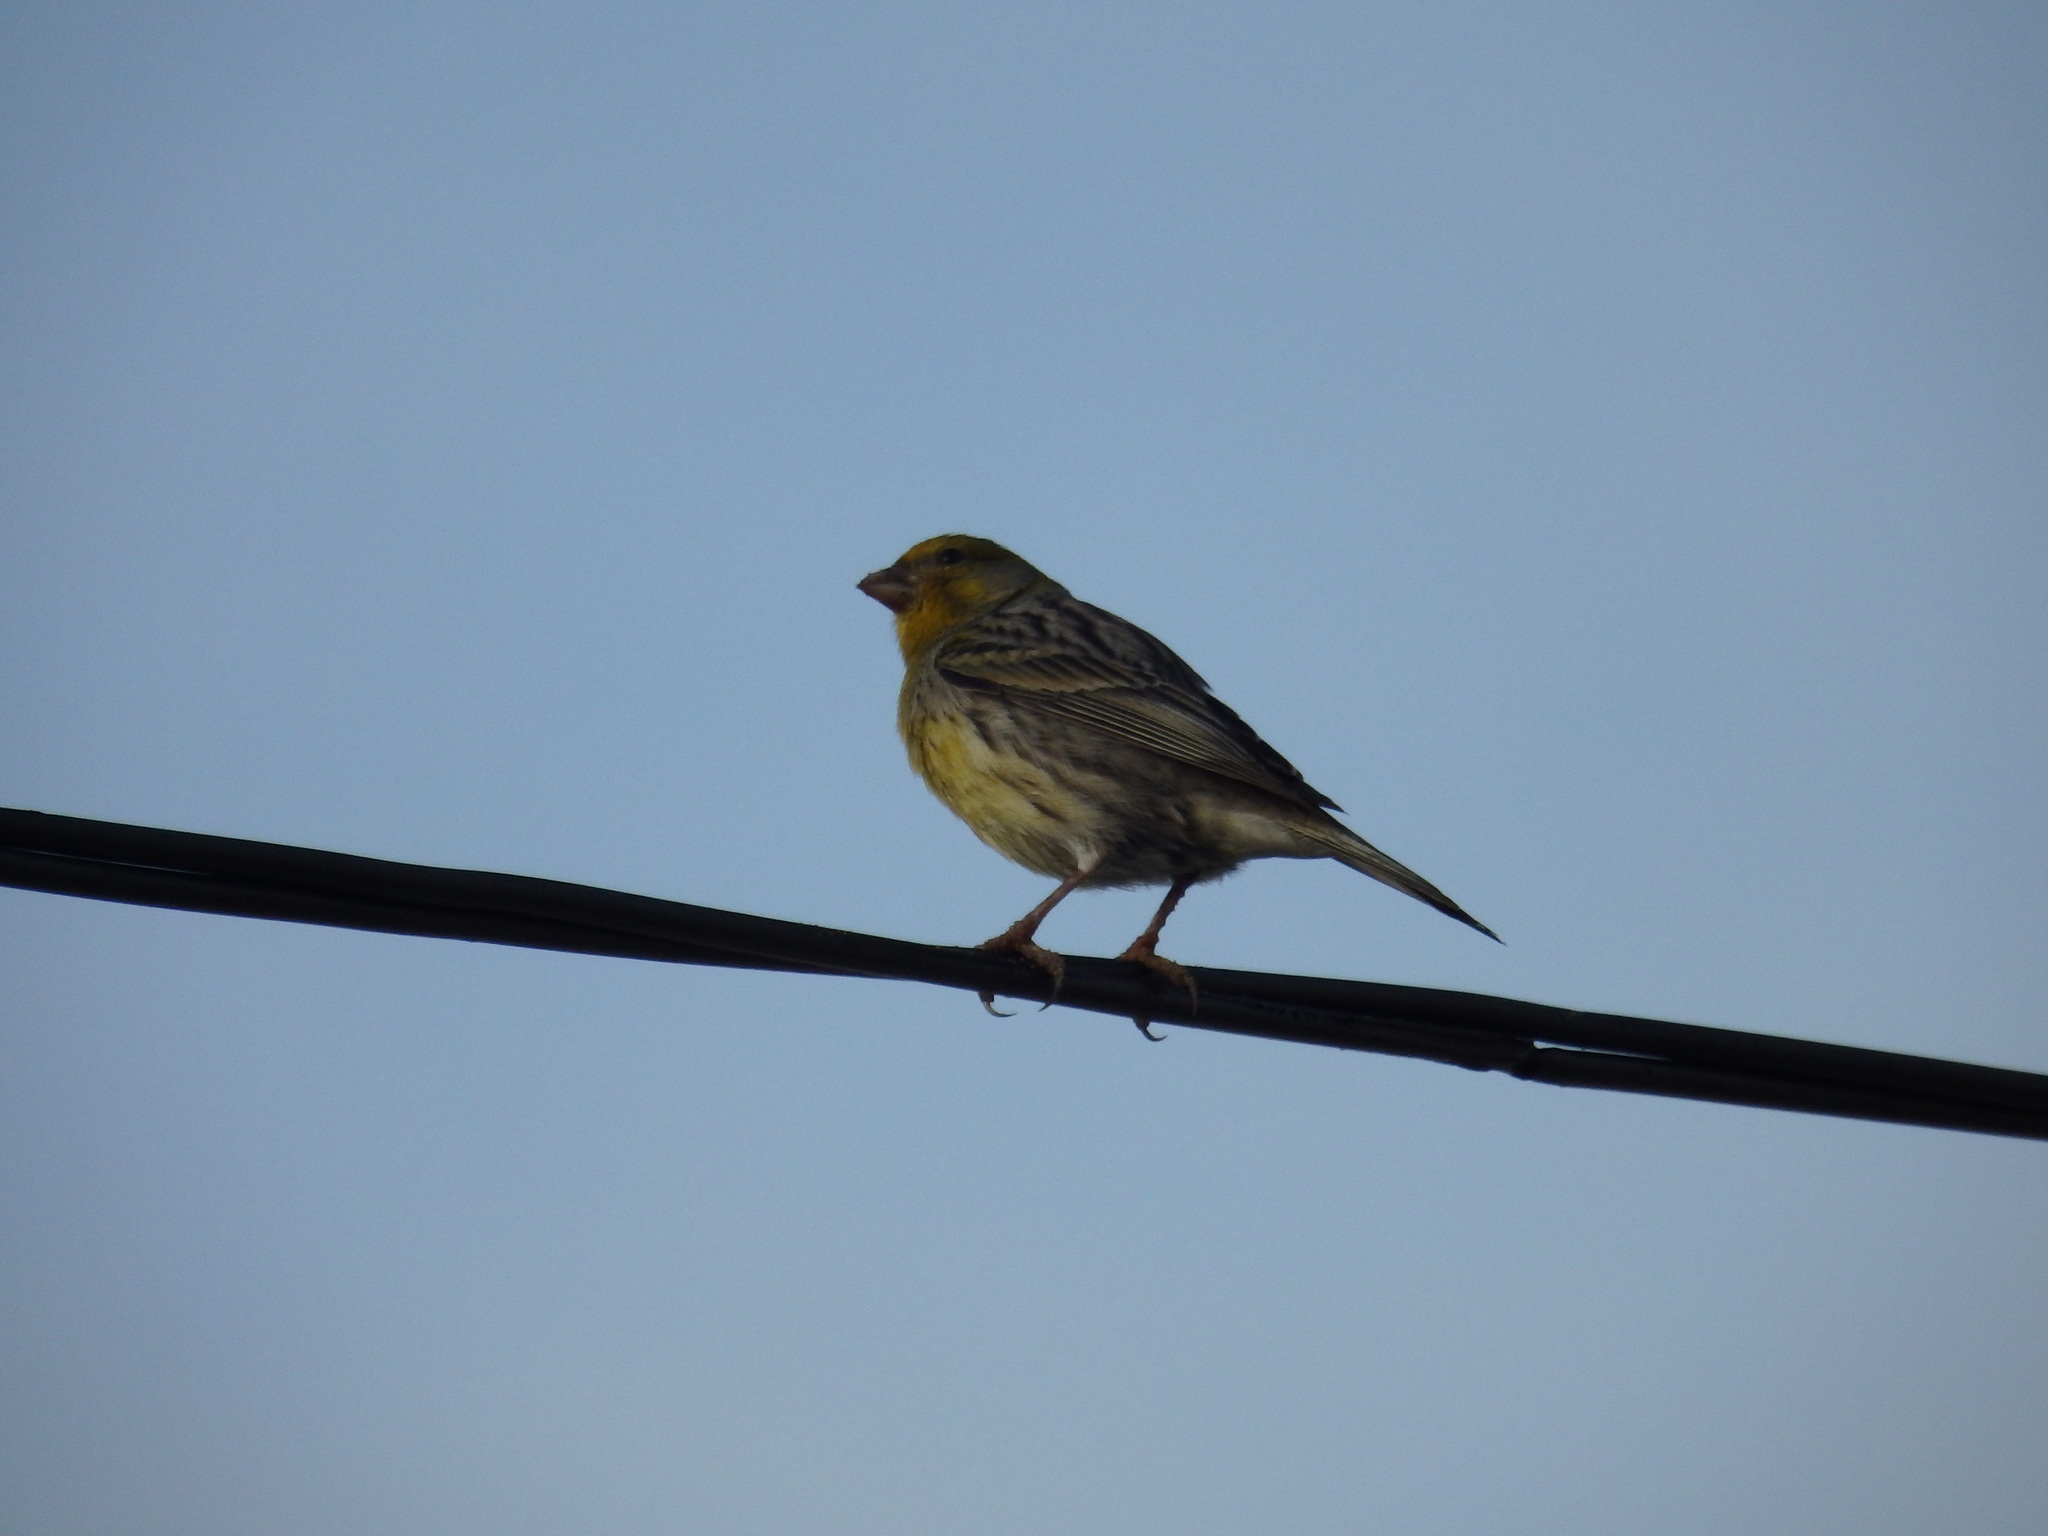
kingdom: Animalia
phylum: Chordata
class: Aves
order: Passeriformes
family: Fringillidae
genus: Serinus
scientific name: Serinus canaria
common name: Atlantic canary
